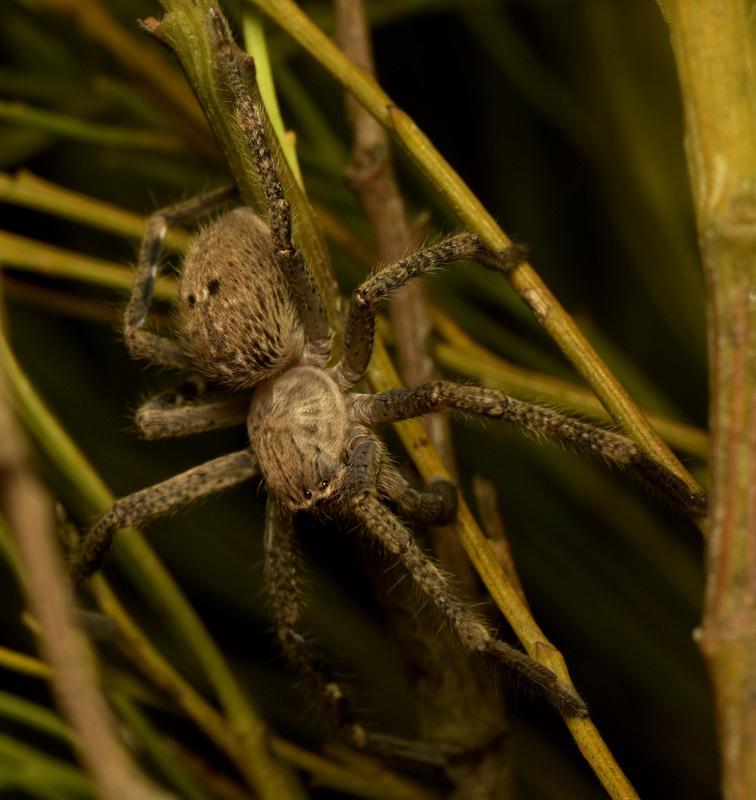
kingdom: Animalia
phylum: Arthropoda
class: Arachnida
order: Araneae
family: Sparassidae
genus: Neosparassus
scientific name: Neosparassus calligaster
